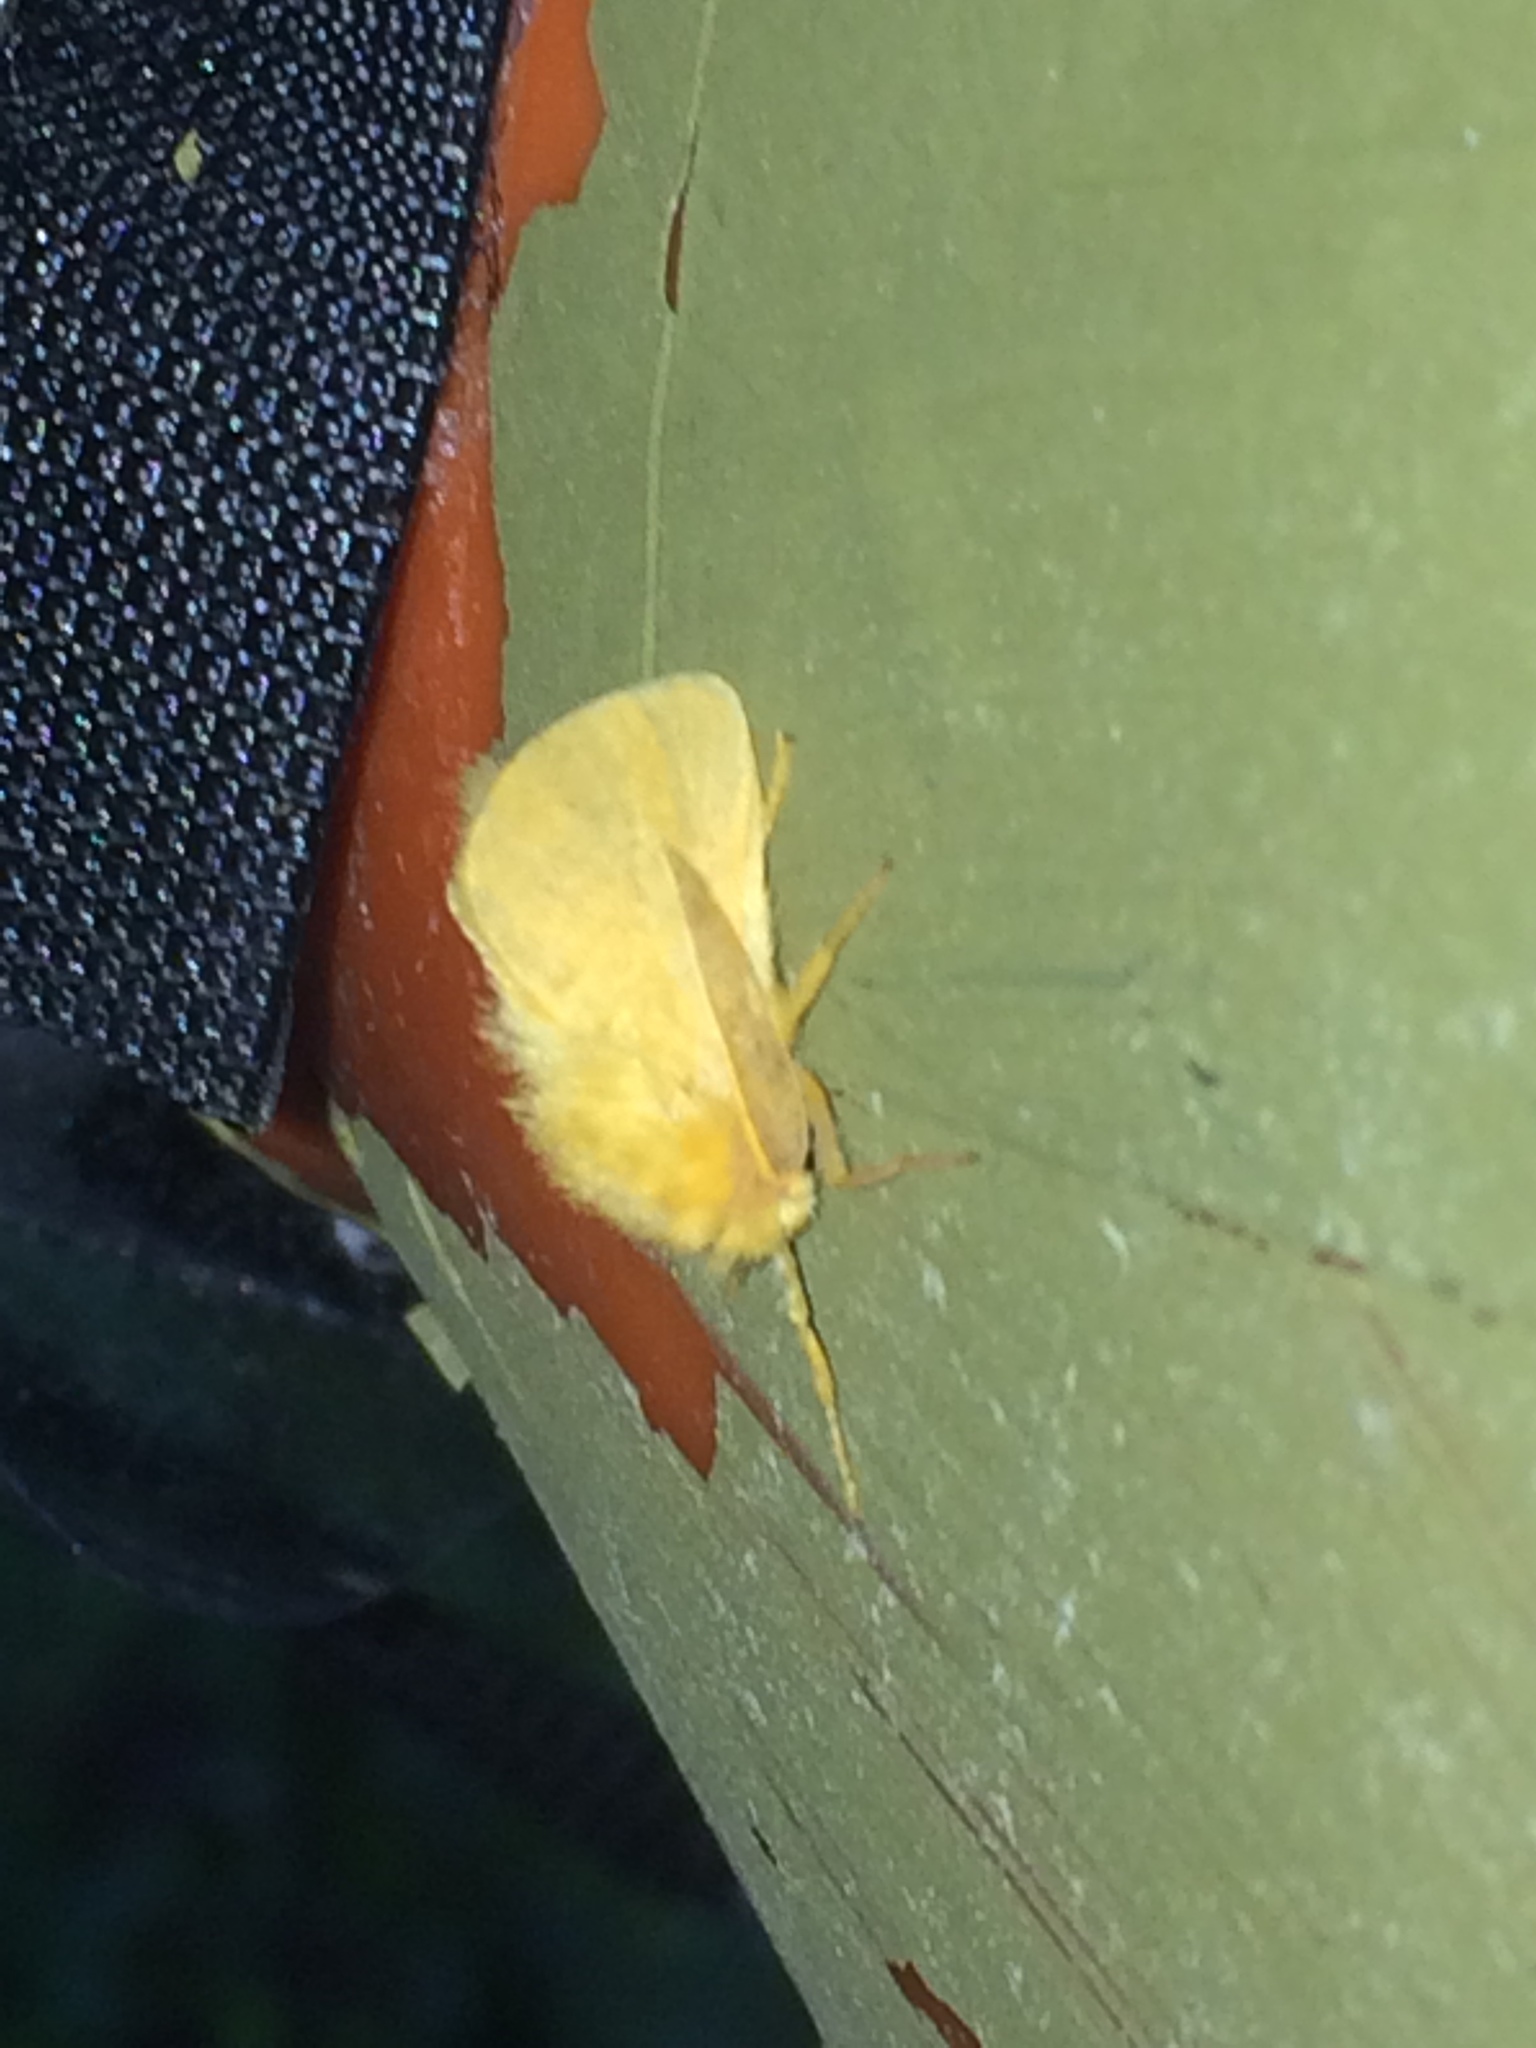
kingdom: Animalia
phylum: Arthropoda
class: Insecta
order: Lepidoptera
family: Megalopygidae
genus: Megalopyge
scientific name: Megalopyge pixidifera
